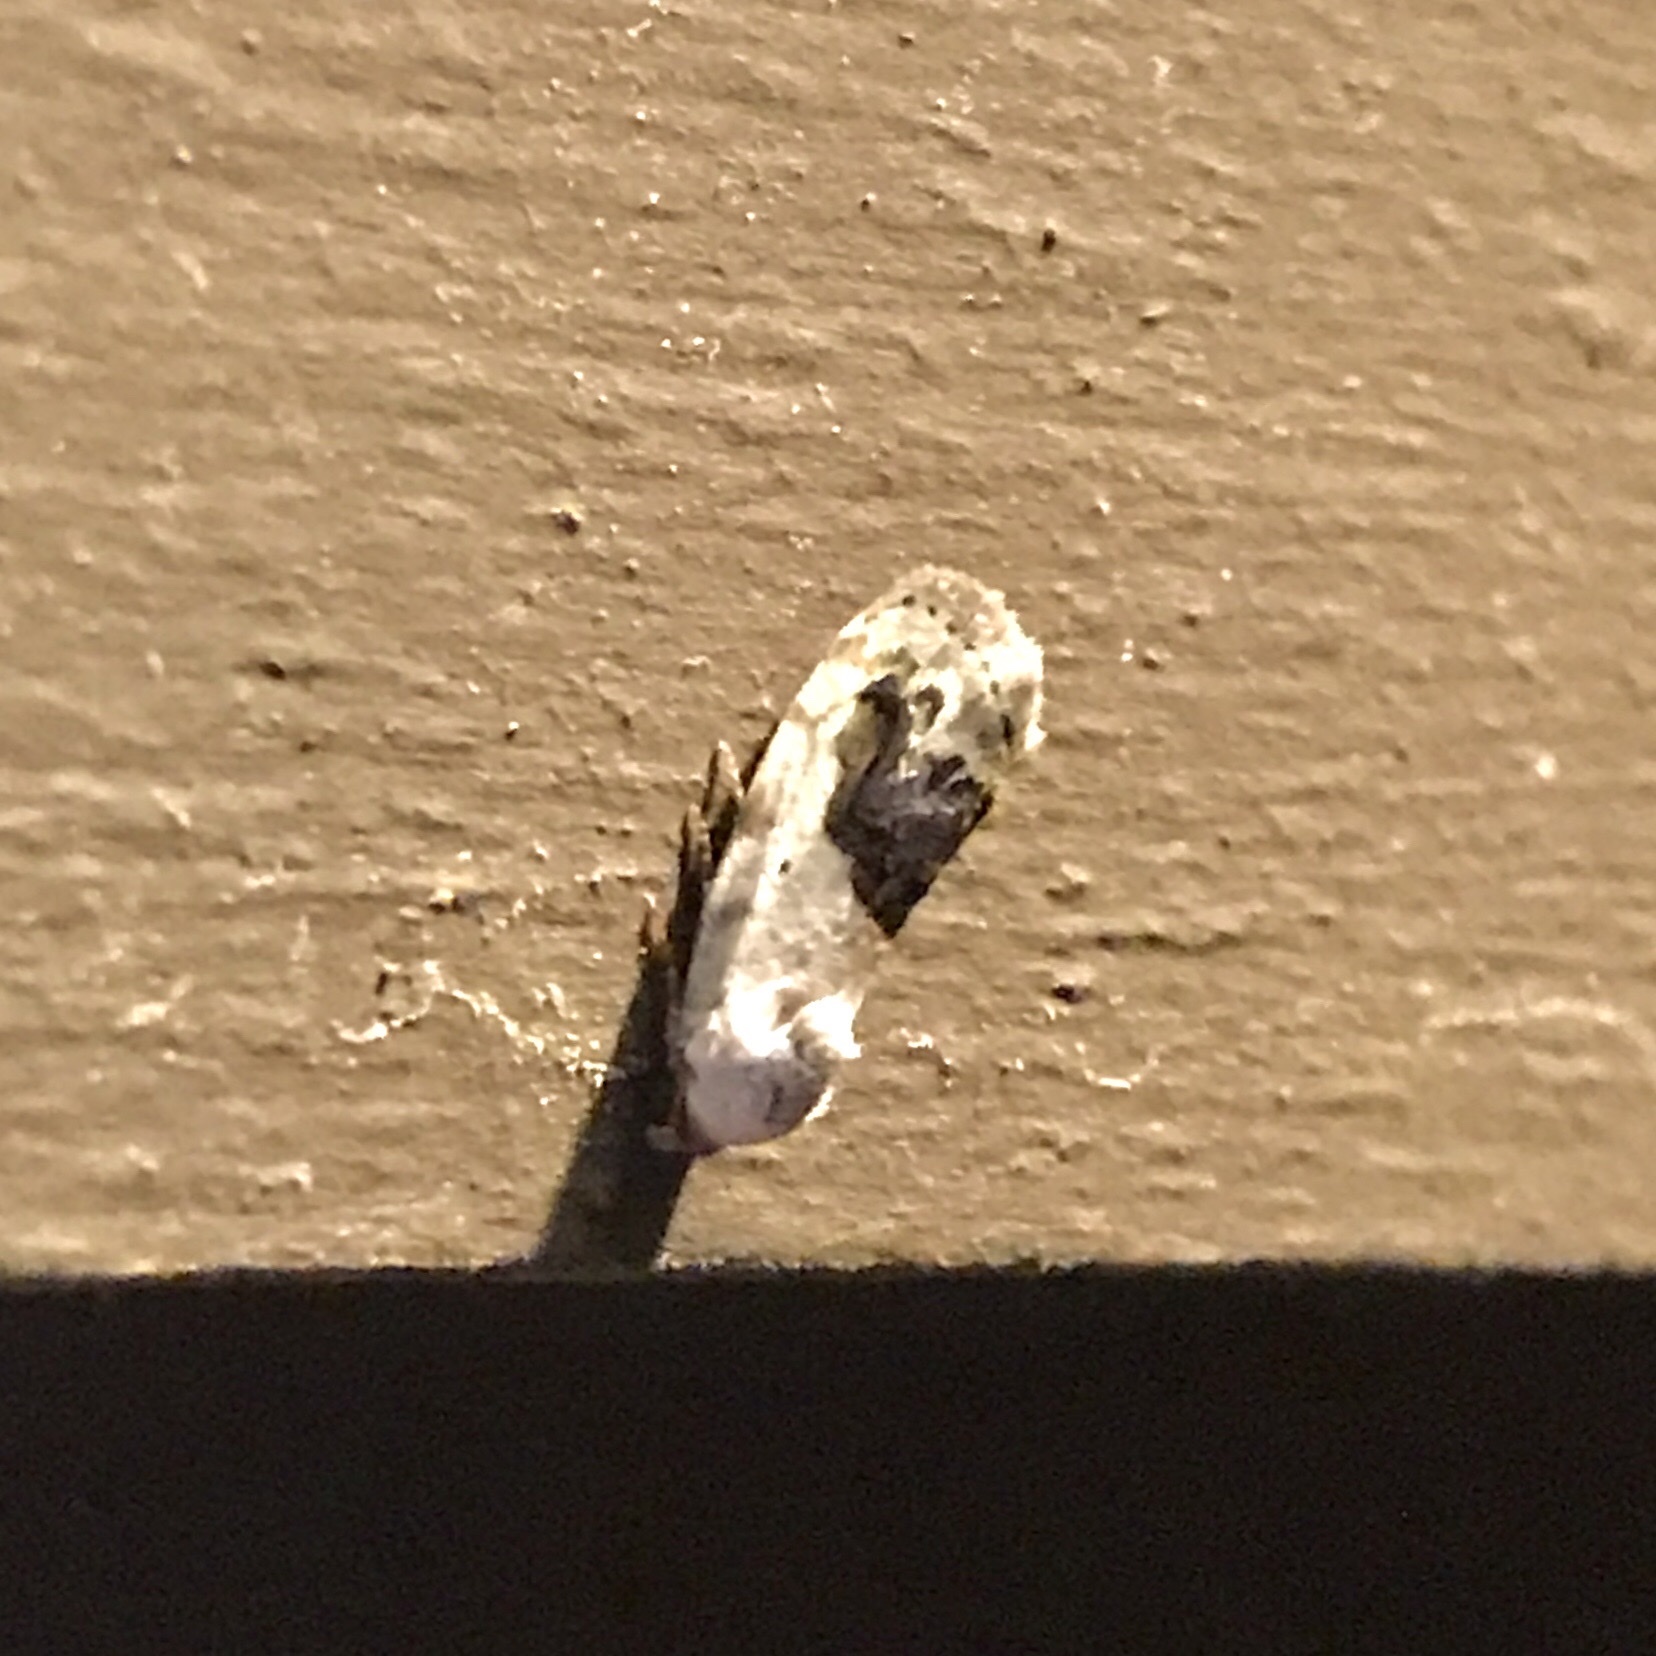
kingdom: Animalia
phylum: Arthropoda
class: Insecta
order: Lepidoptera
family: Noctuidae
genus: Acontia
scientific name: Acontia erastrioides
